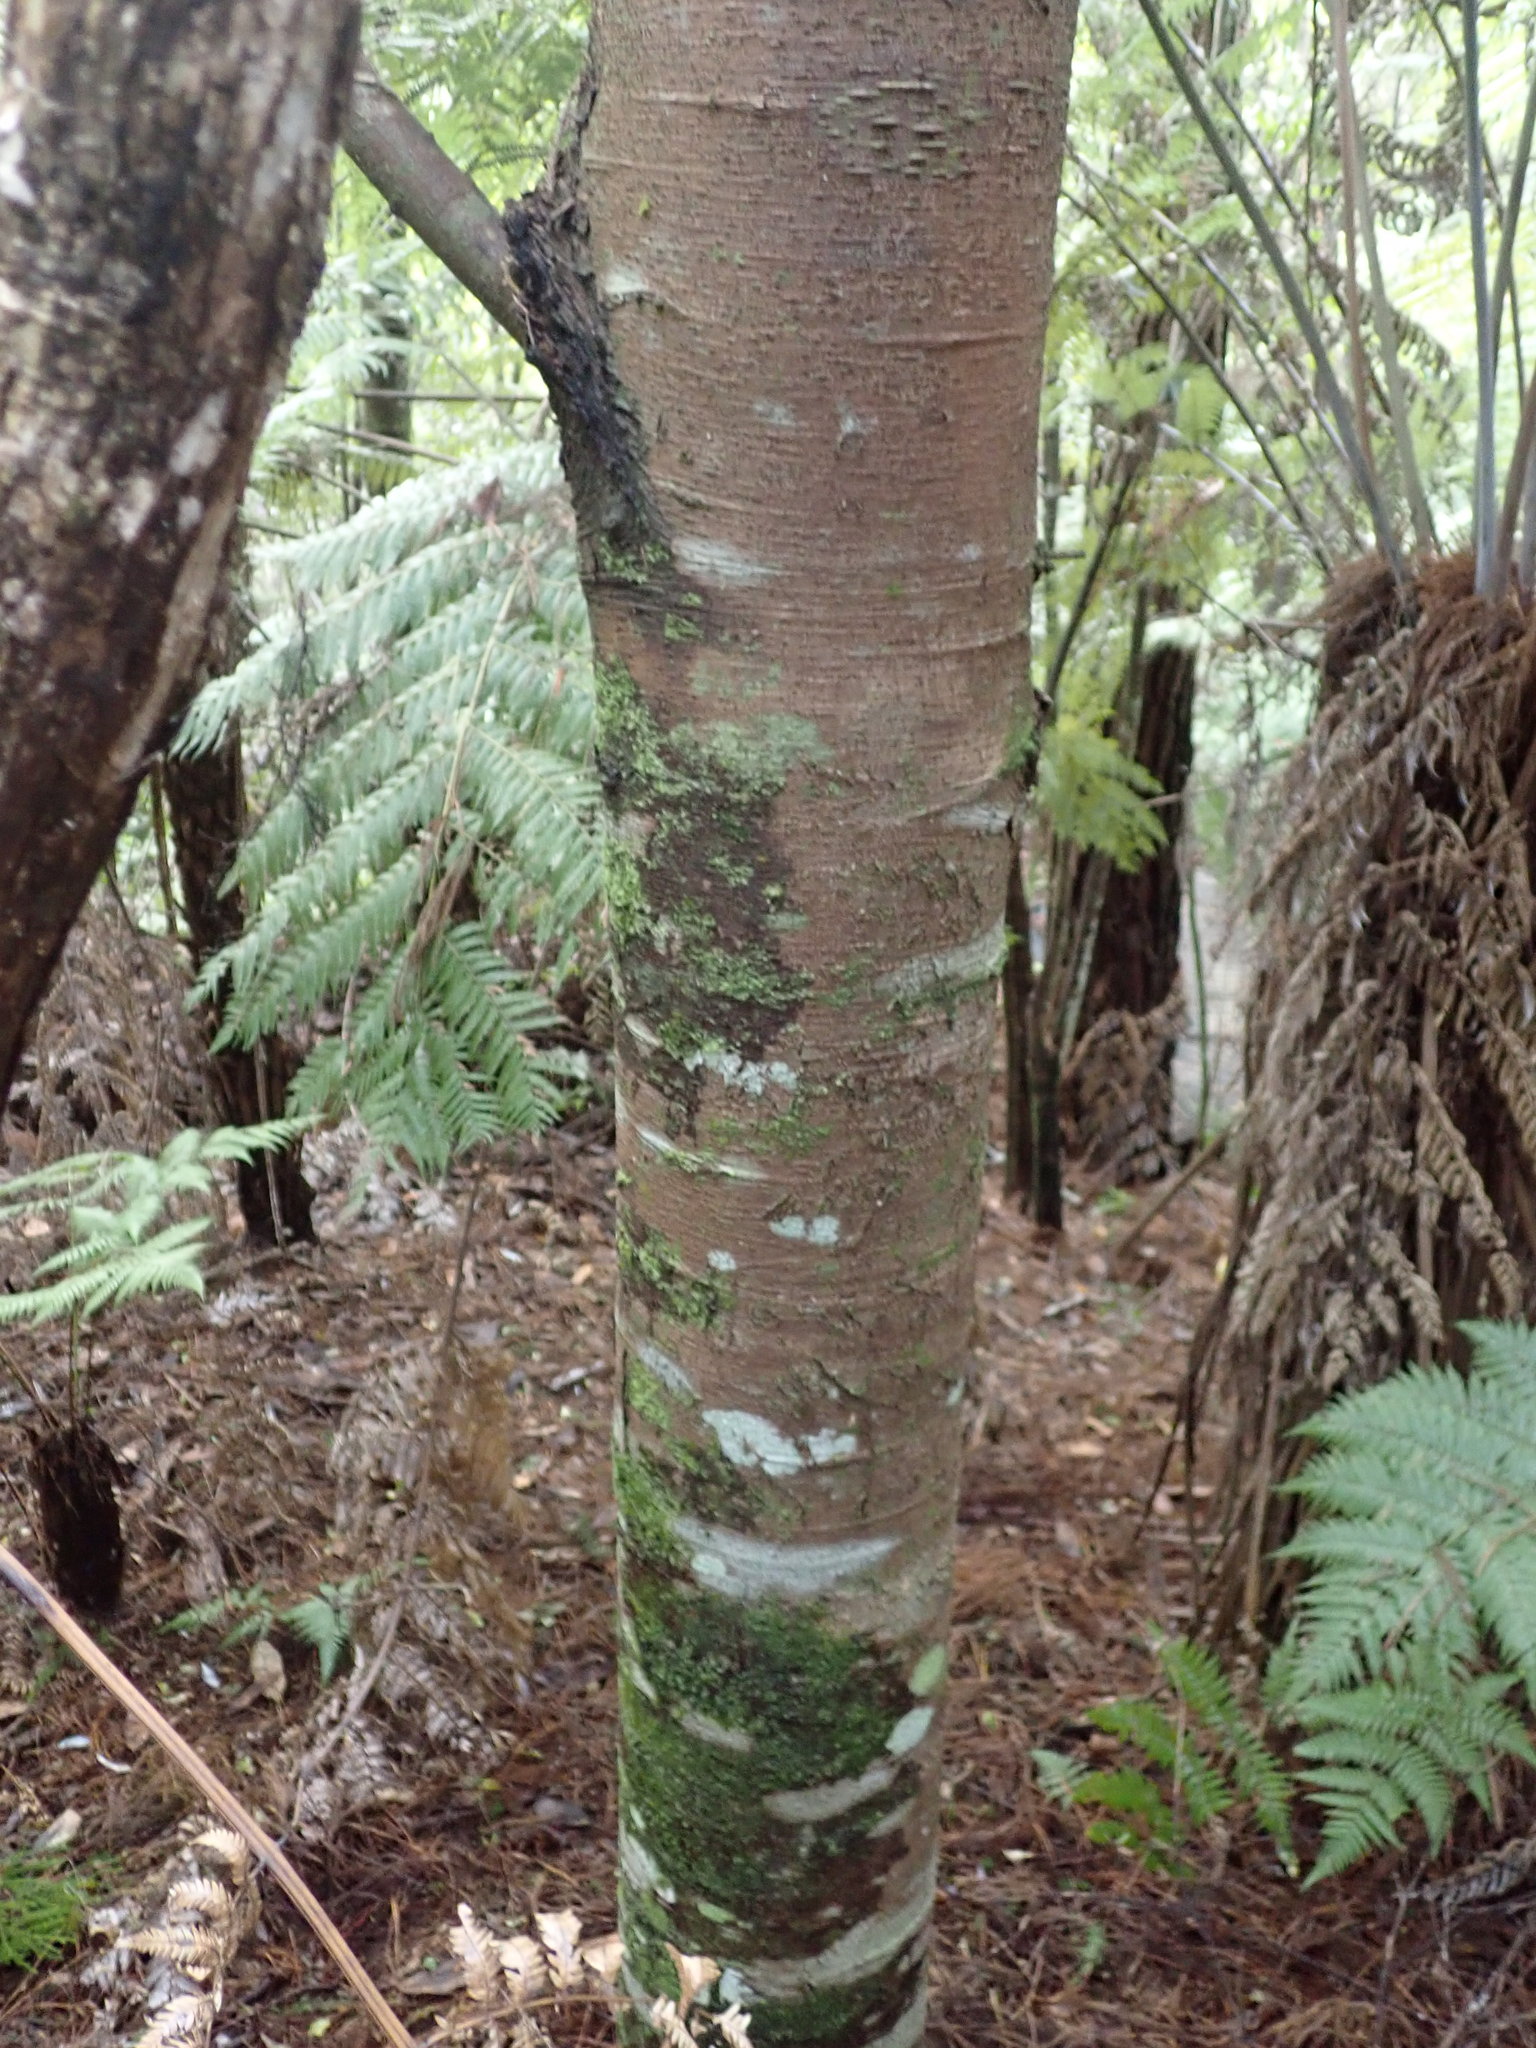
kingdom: Plantae
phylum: Tracheophyta
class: Pinopsida
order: Pinales
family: Podocarpaceae
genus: Dacrydium
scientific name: Dacrydium cupressinum
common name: Red pine
